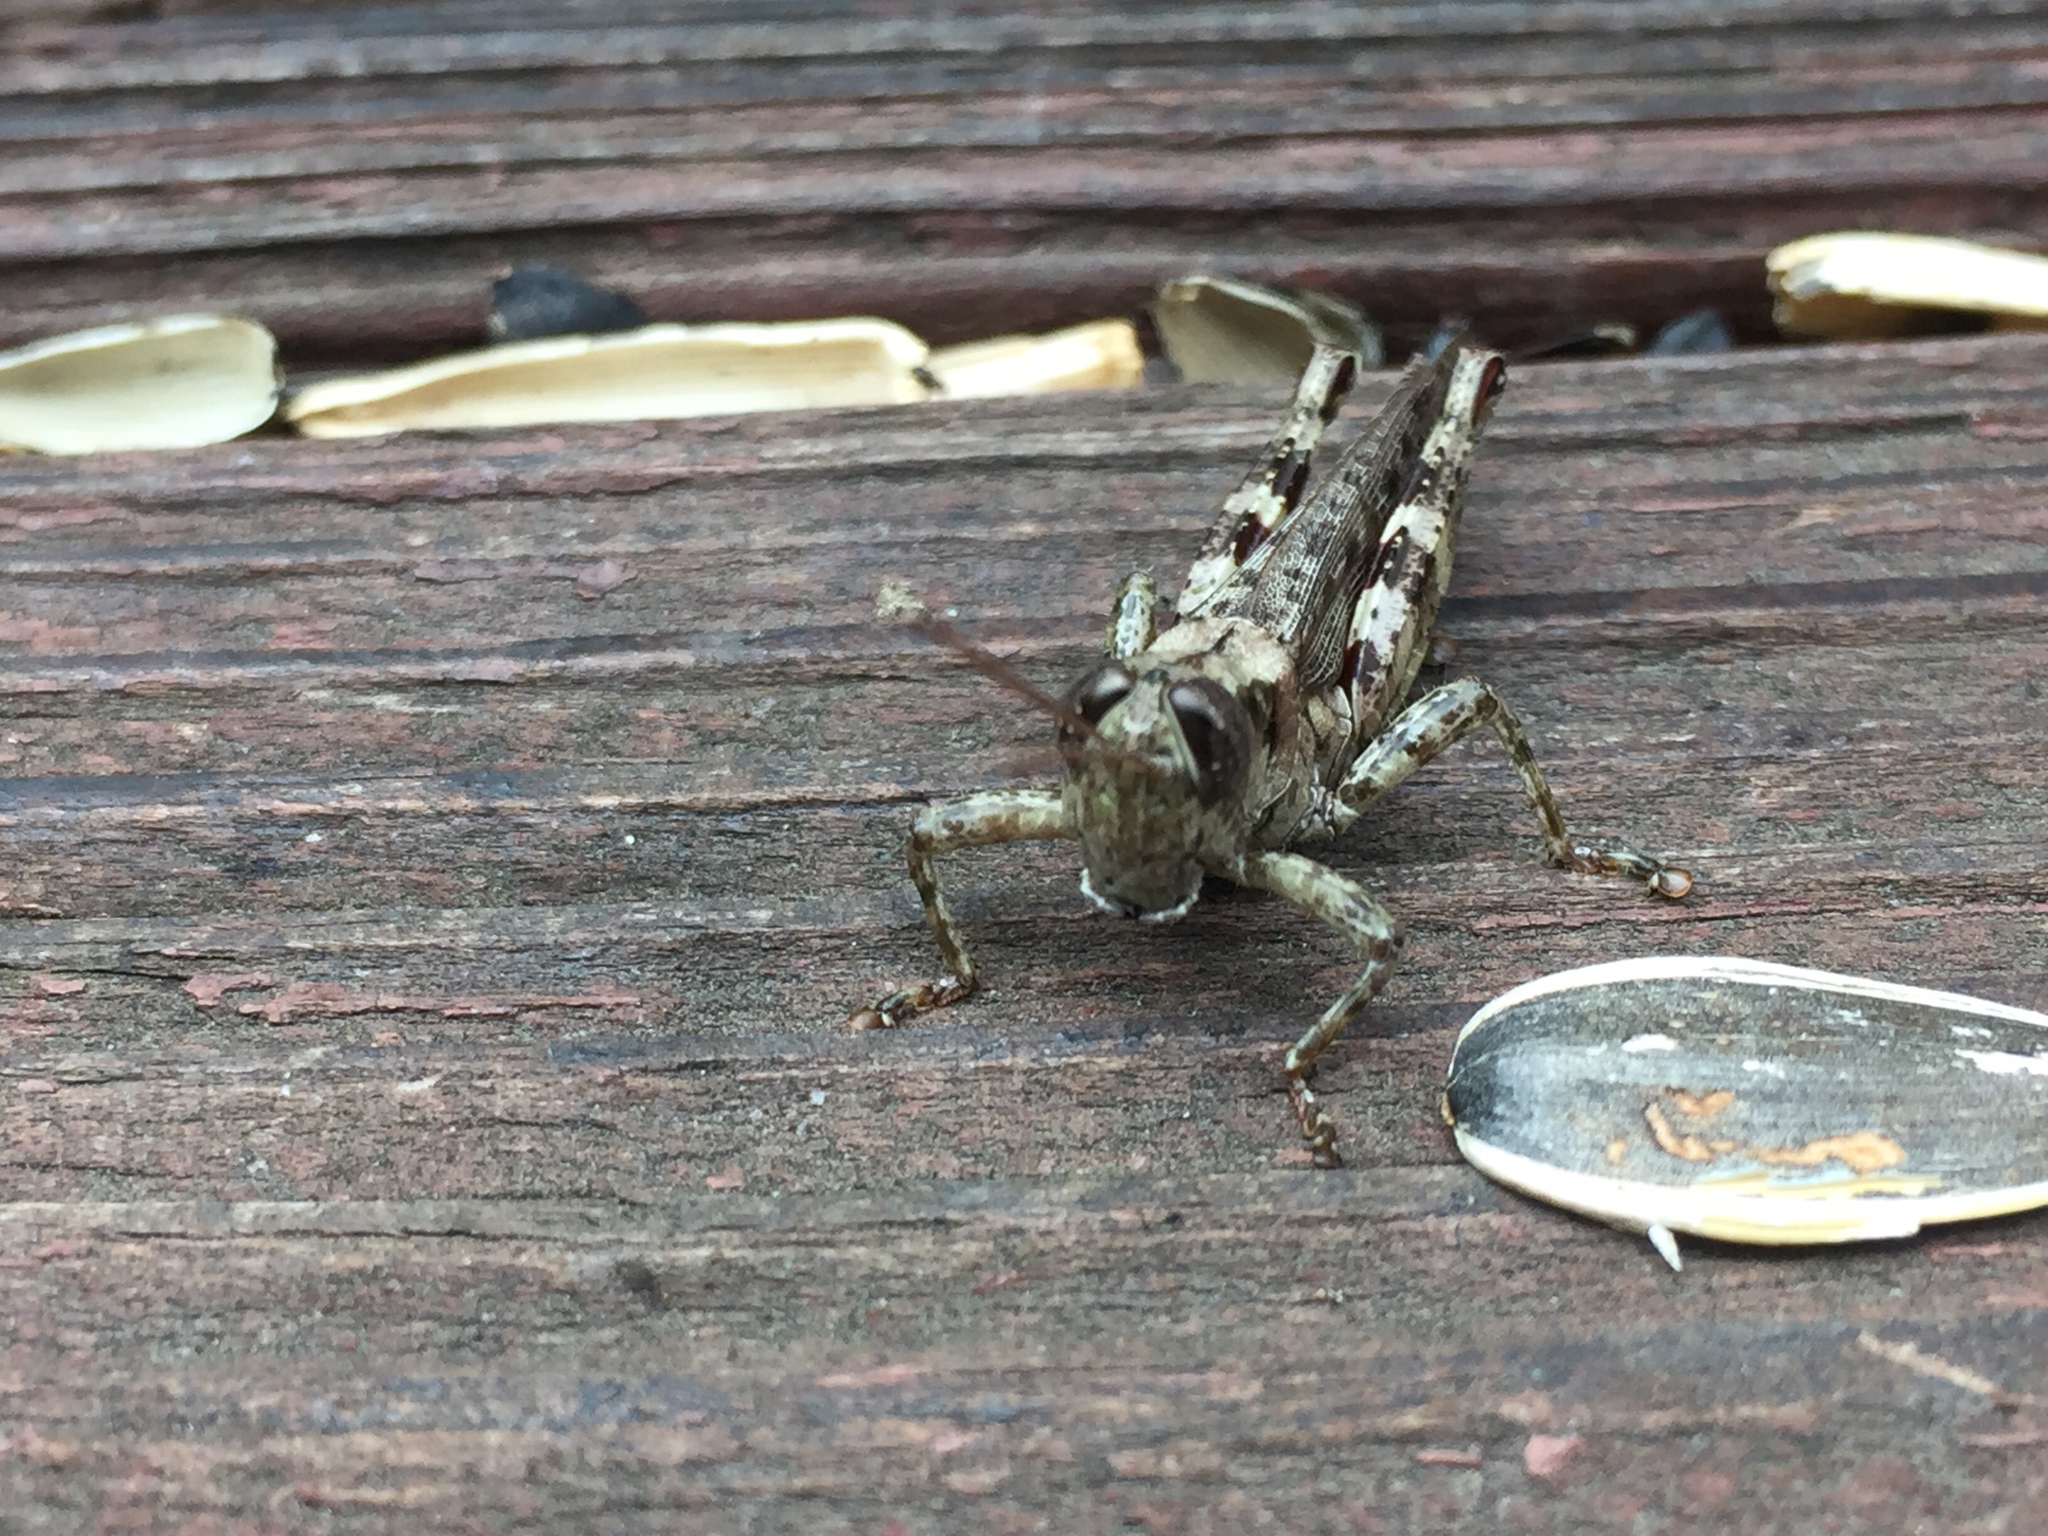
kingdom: Animalia
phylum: Arthropoda
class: Insecta
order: Orthoptera
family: Acrididae
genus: Melanoplus
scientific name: Melanoplus punctulatus
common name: Pine-tree spur-throat grasshopper
